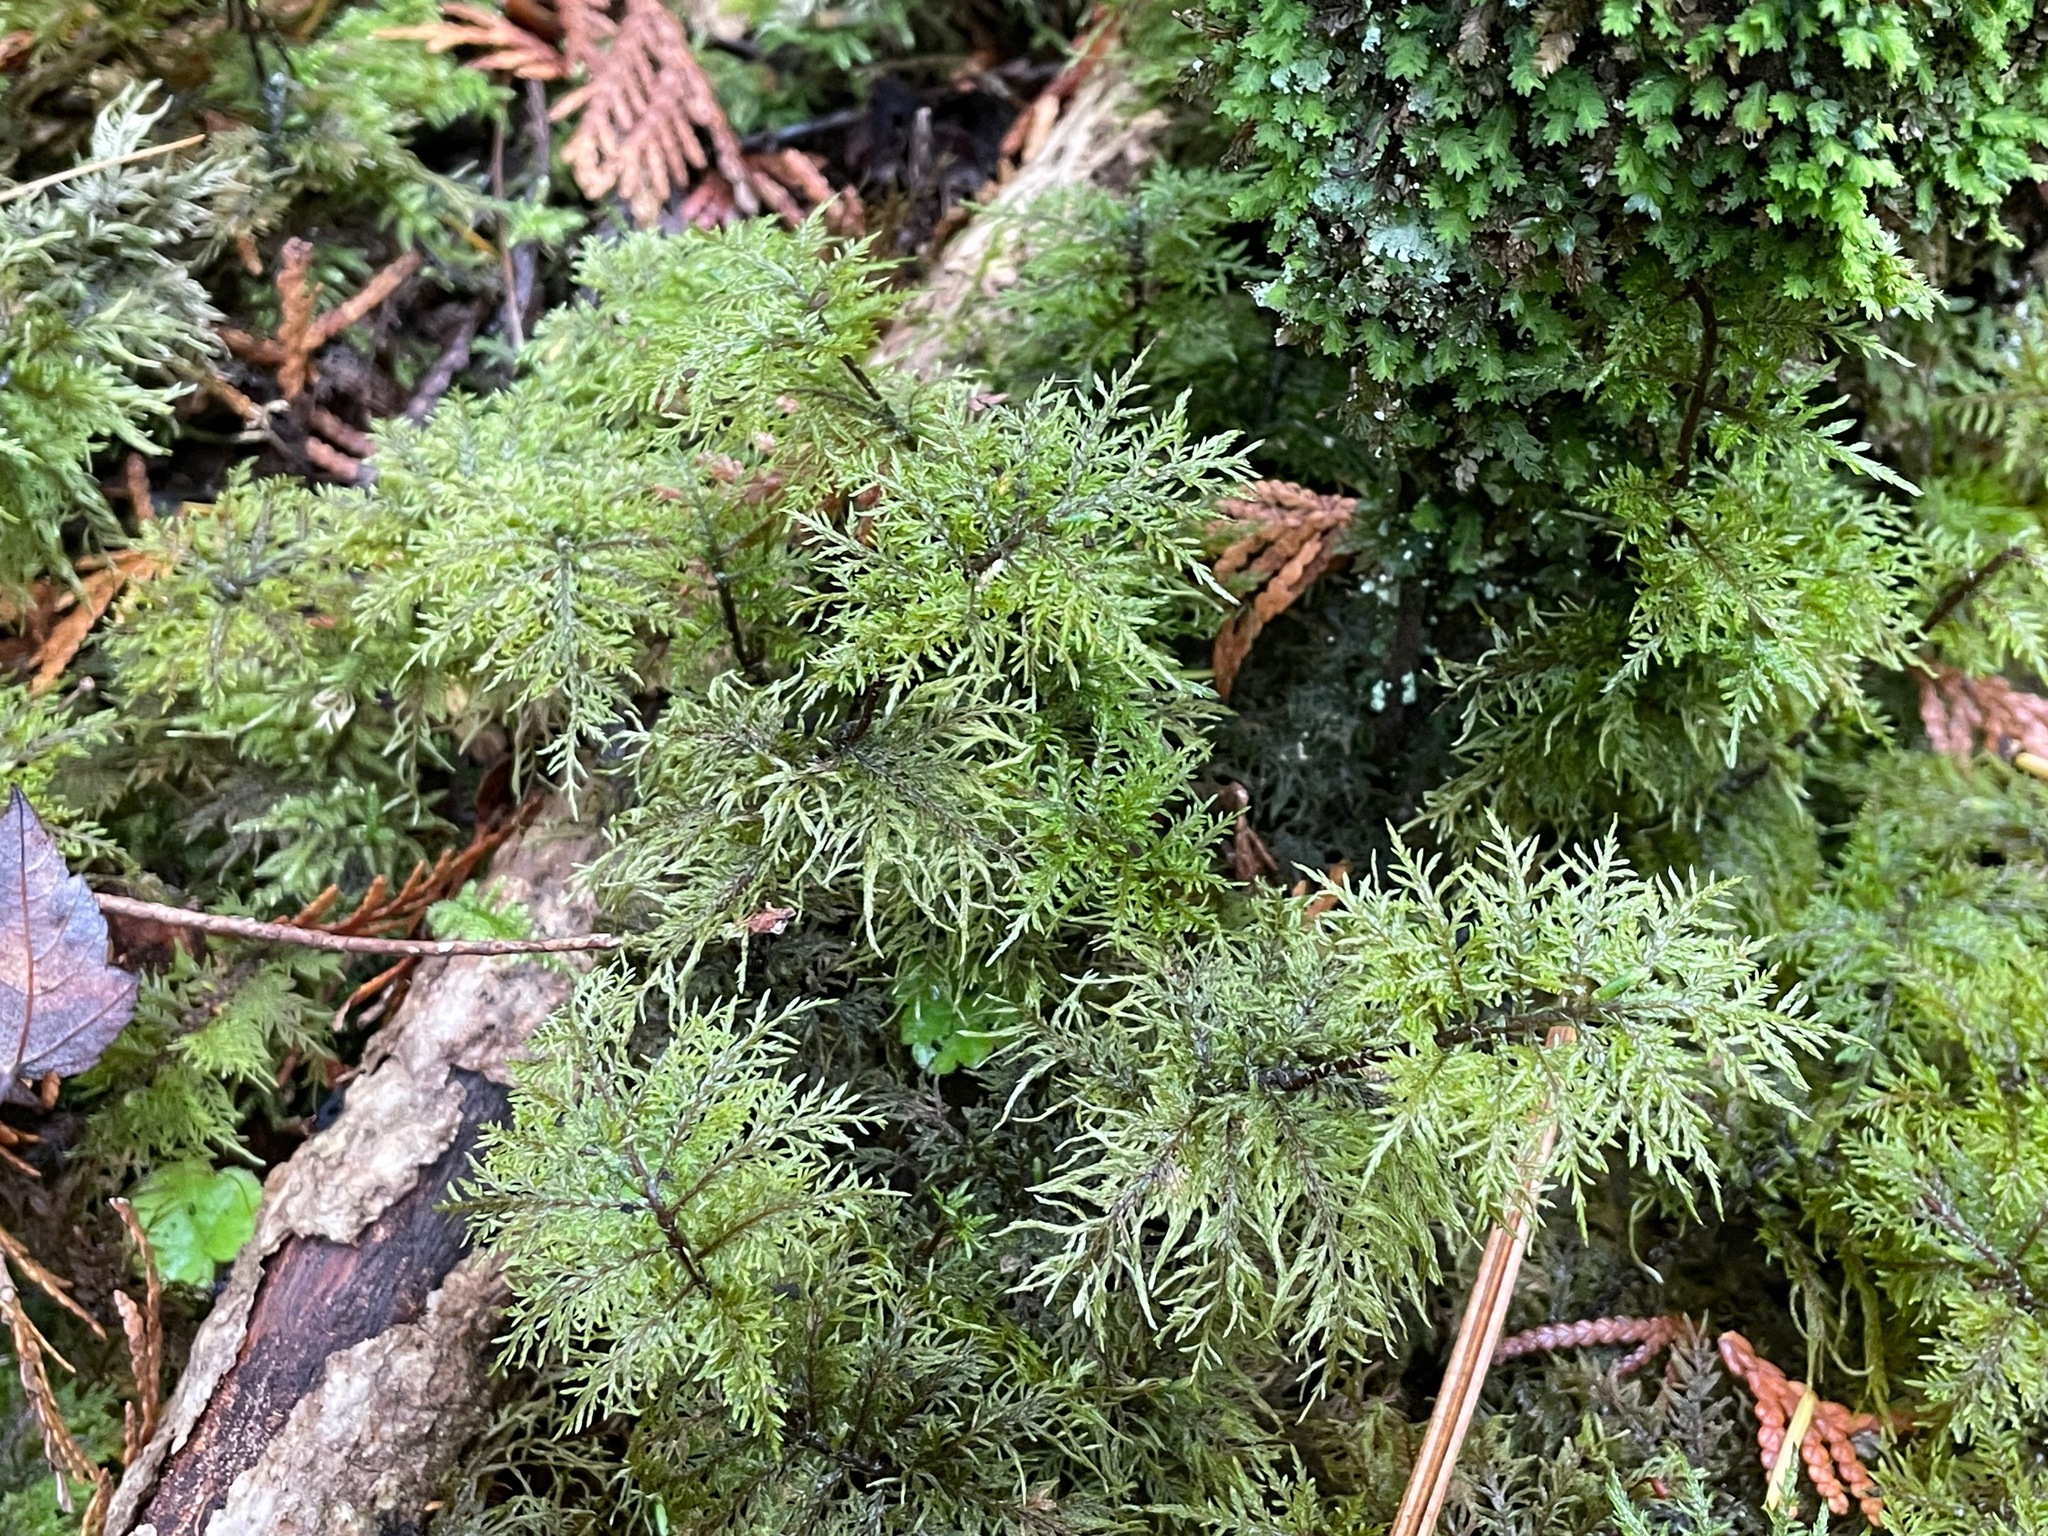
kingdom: Plantae
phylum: Bryophyta
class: Bryopsida
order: Hypnales
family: Hylocomiaceae
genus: Hylocomium
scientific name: Hylocomium splendens
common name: Stairstep moss
